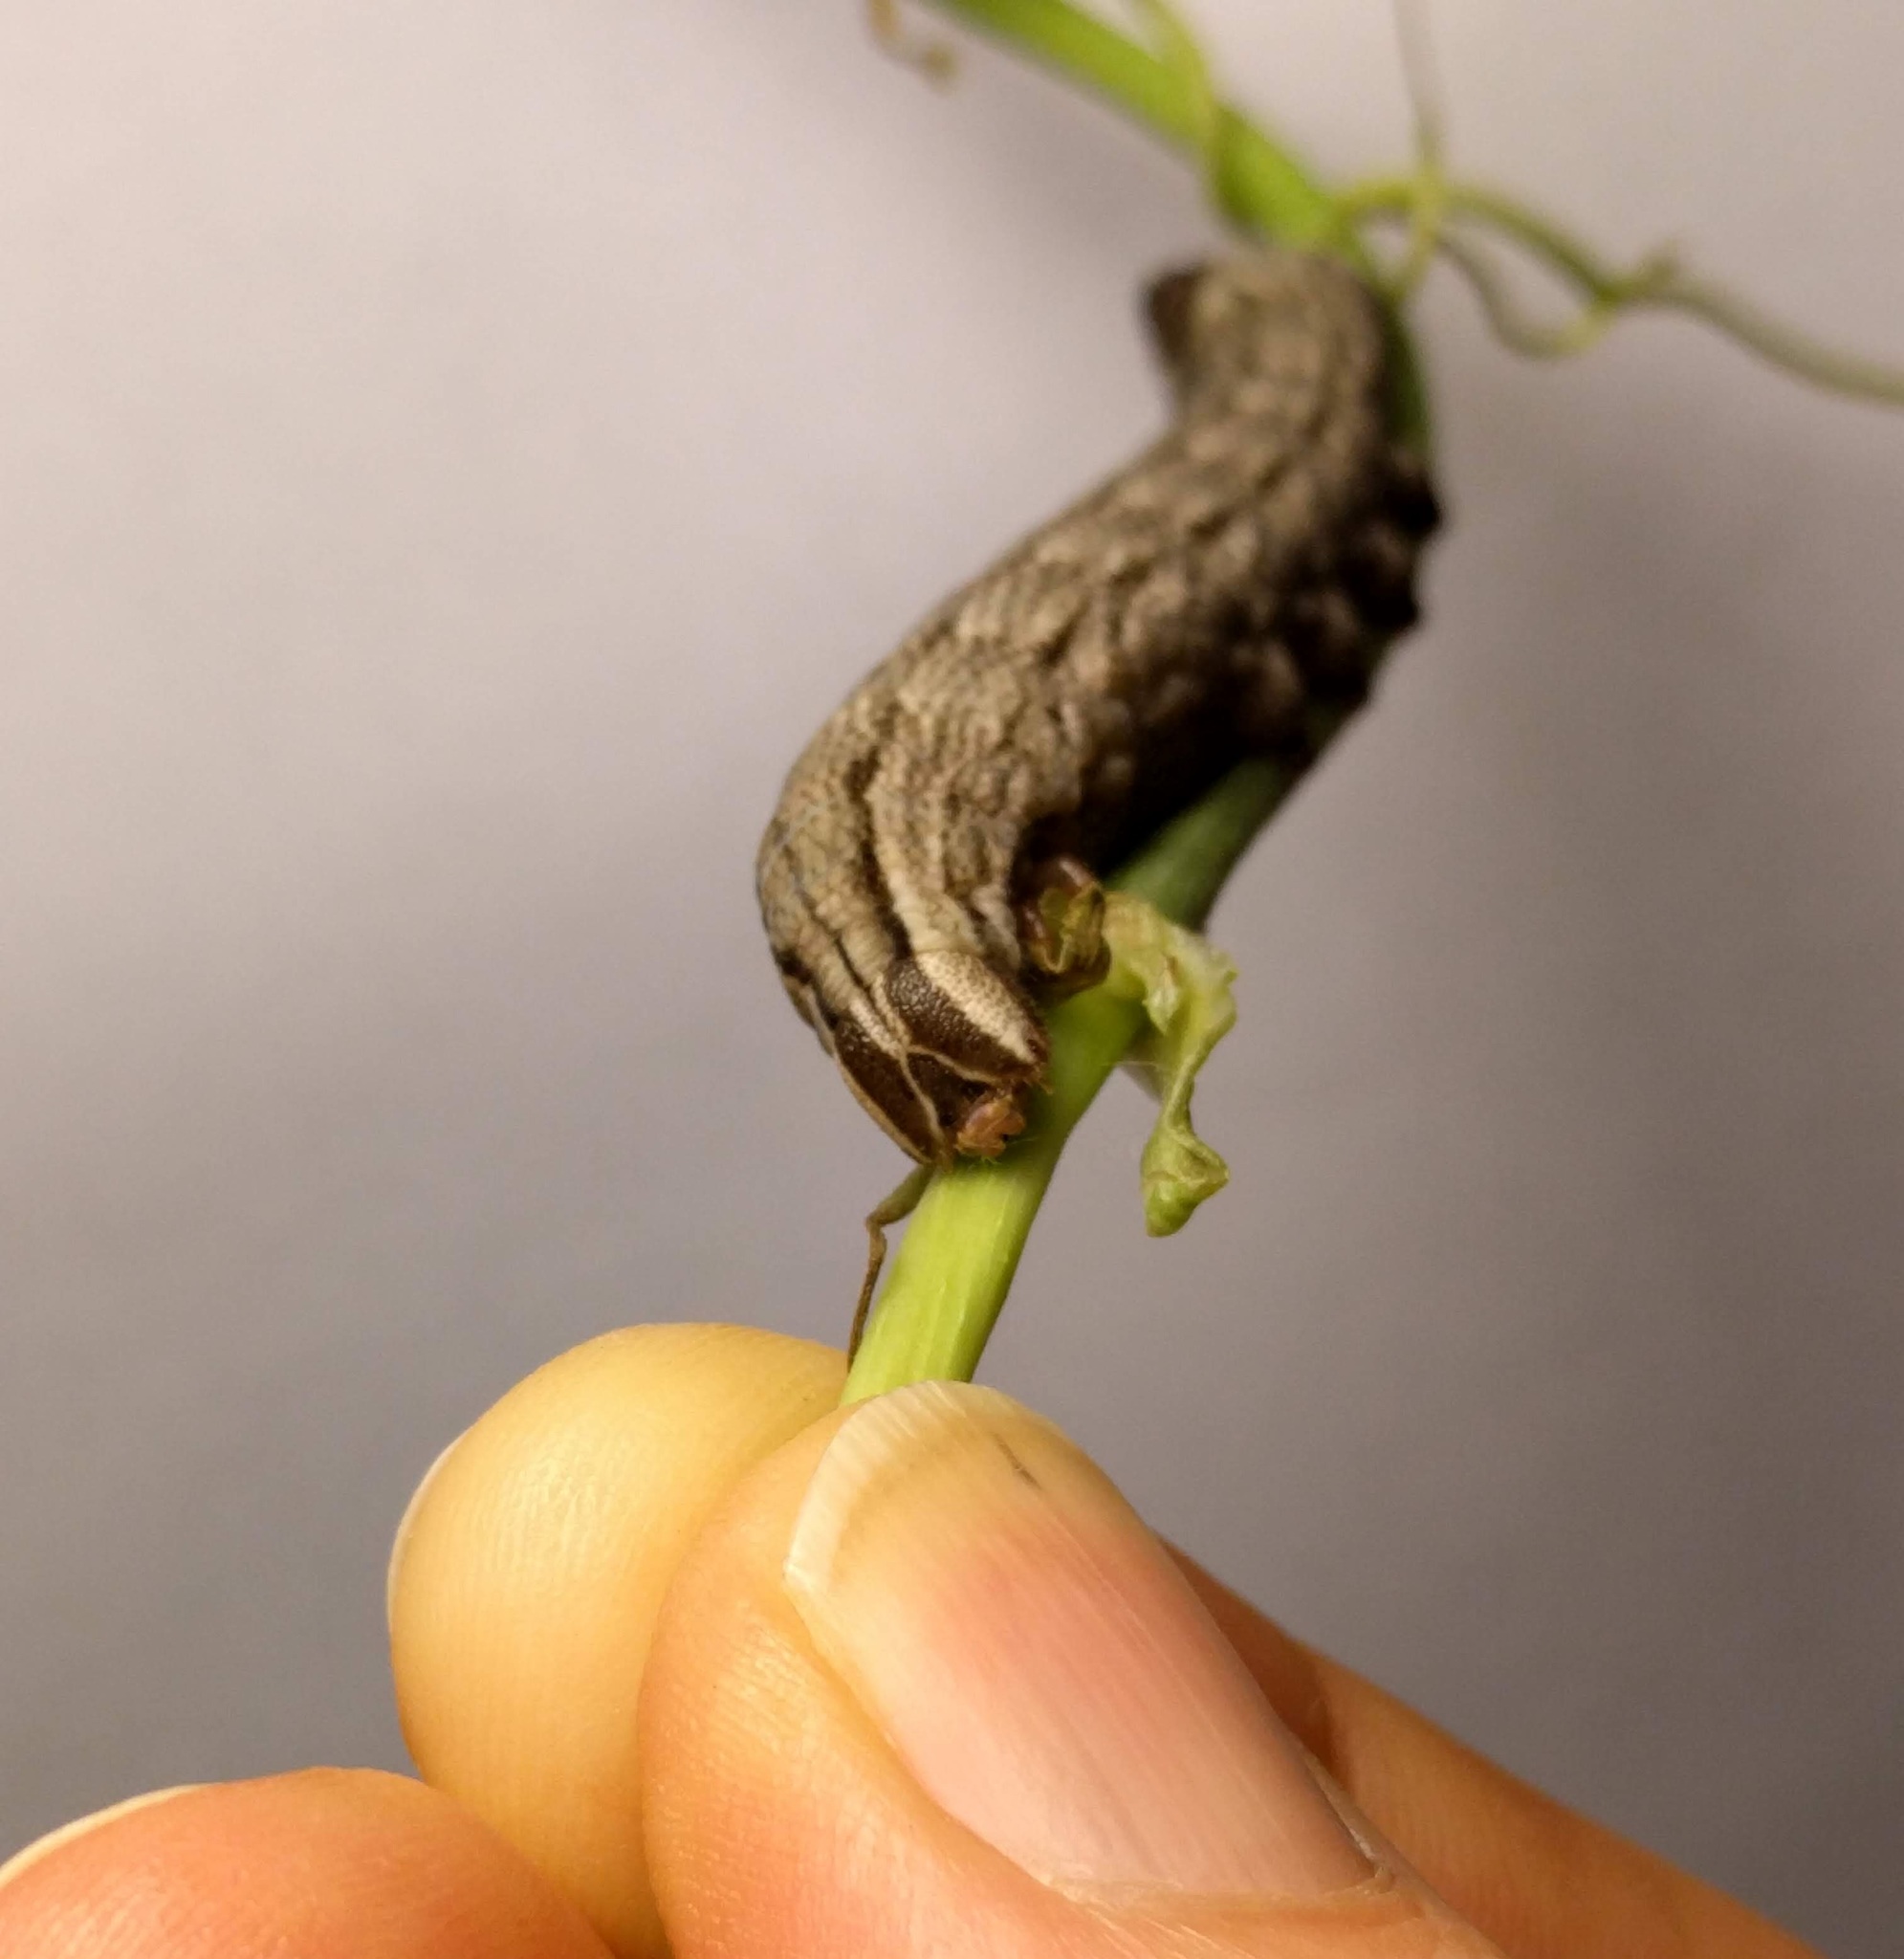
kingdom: Animalia
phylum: Arthropoda
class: Insecta
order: Lepidoptera
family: Sphingidae
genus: Sphecodina
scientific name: Sphecodina abbottii
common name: Abbott's sphinx
